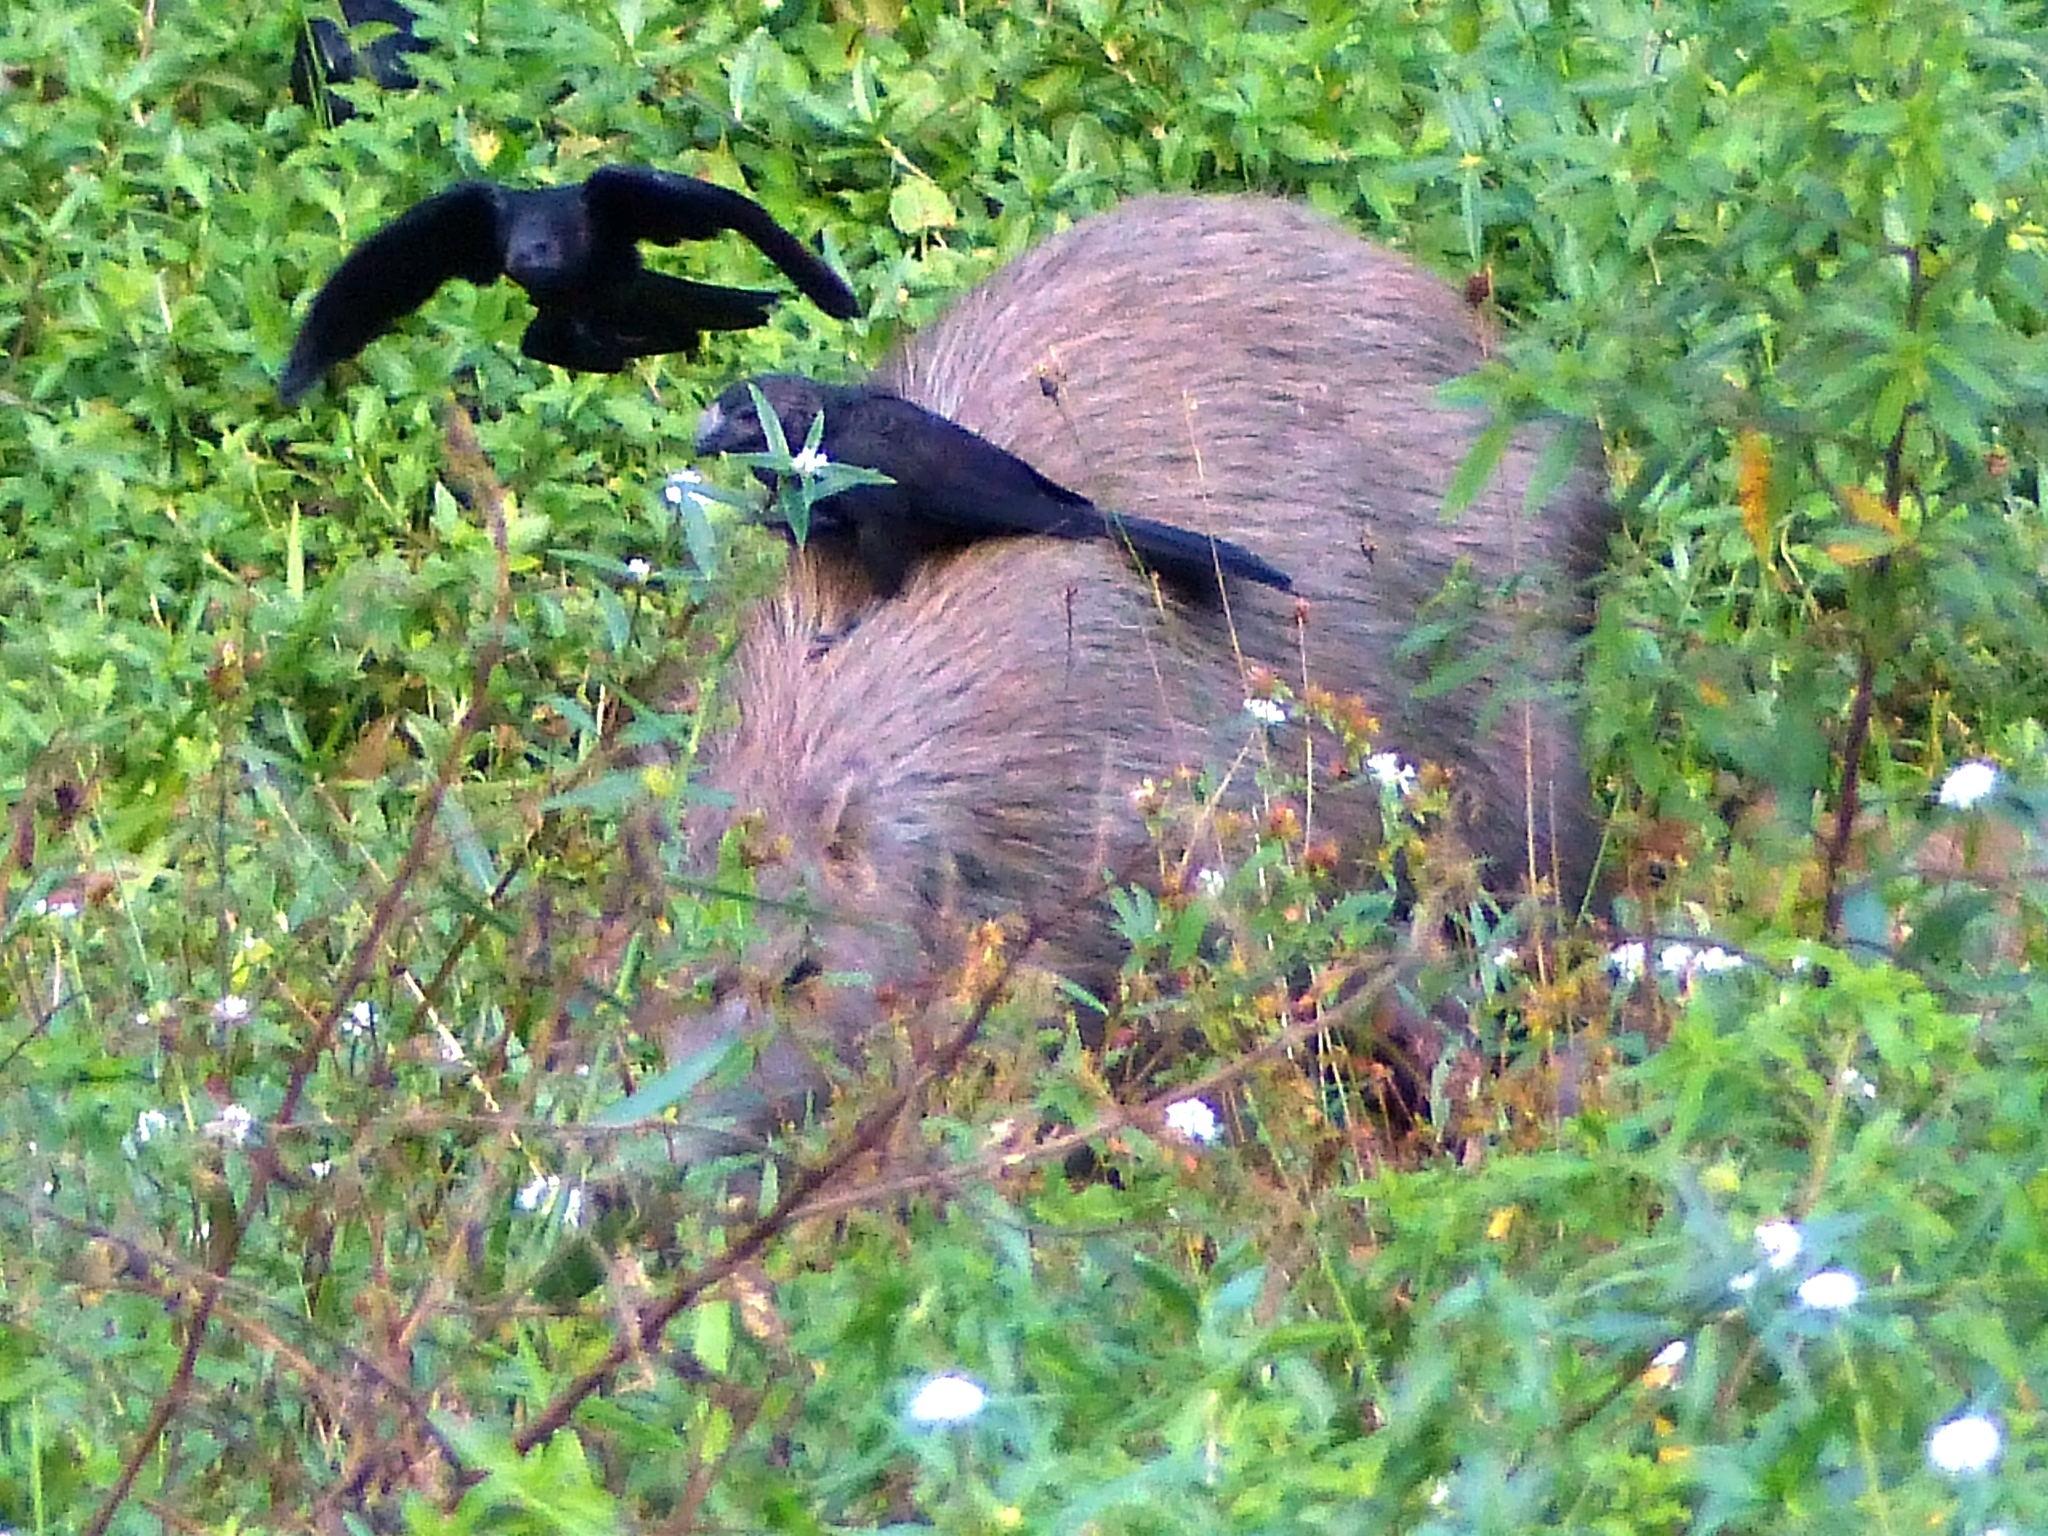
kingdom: Animalia
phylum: Chordata
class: Aves
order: Cuculiformes
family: Cuculidae
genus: Crotophaga
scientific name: Crotophaga ani
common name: Smooth-billed ani
